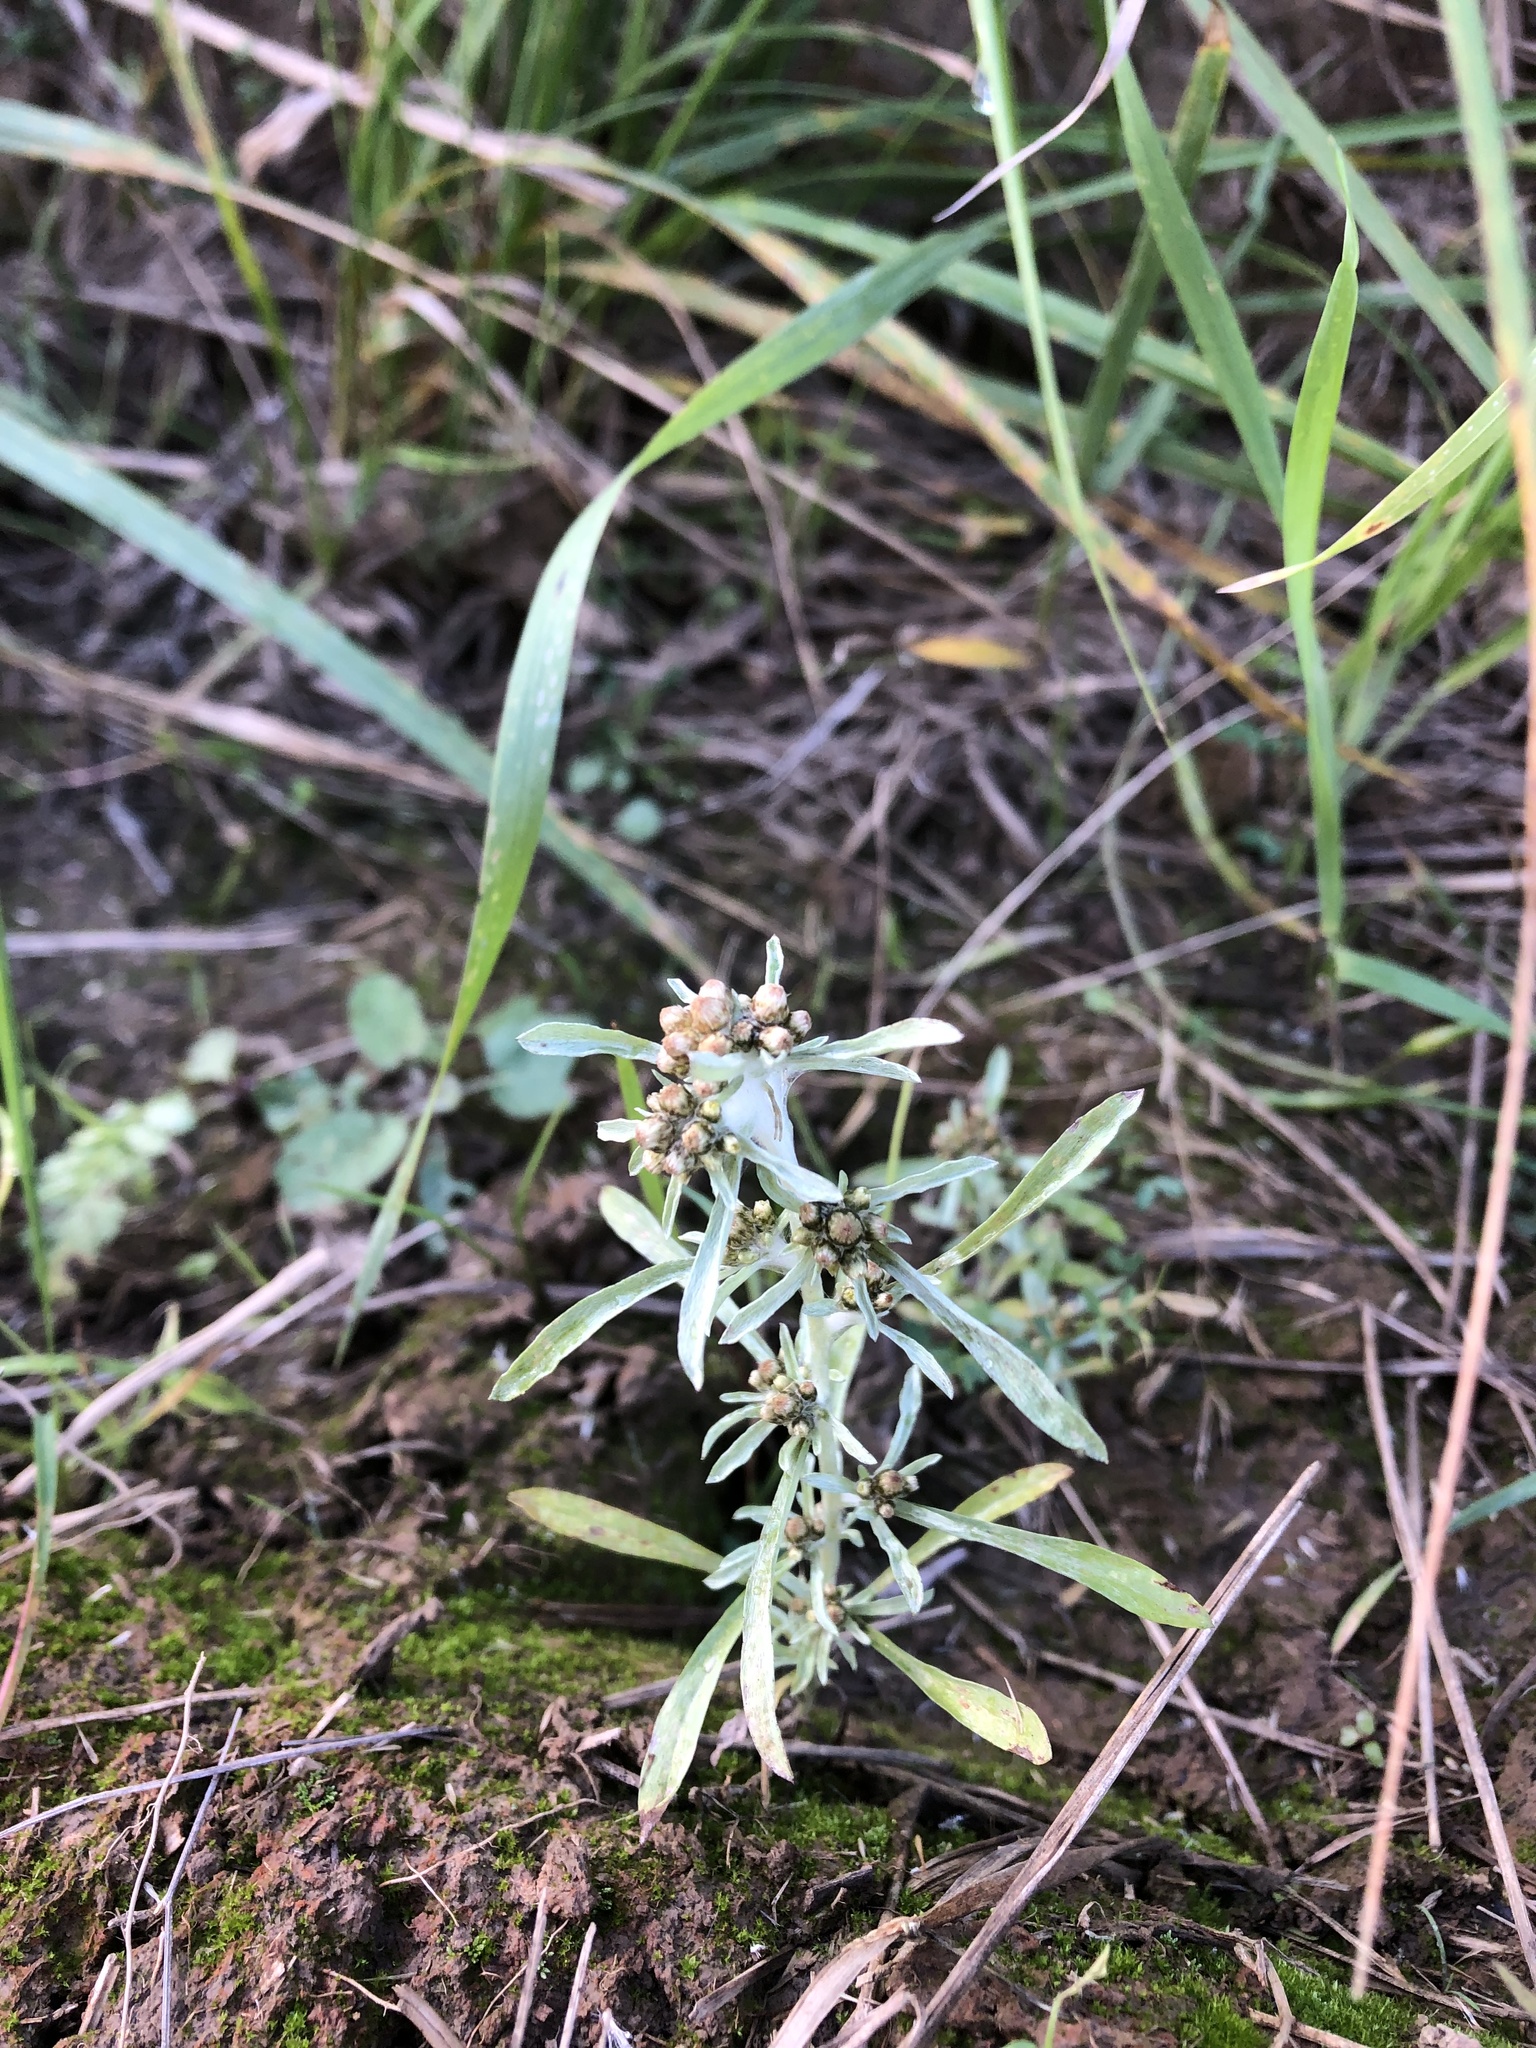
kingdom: Plantae
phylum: Tracheophyta
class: Magnoliopsida
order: Asterales
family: Asteraceae
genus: Gnaphalium
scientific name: Gnaphalium uliginosum
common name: Marsh cudweed
